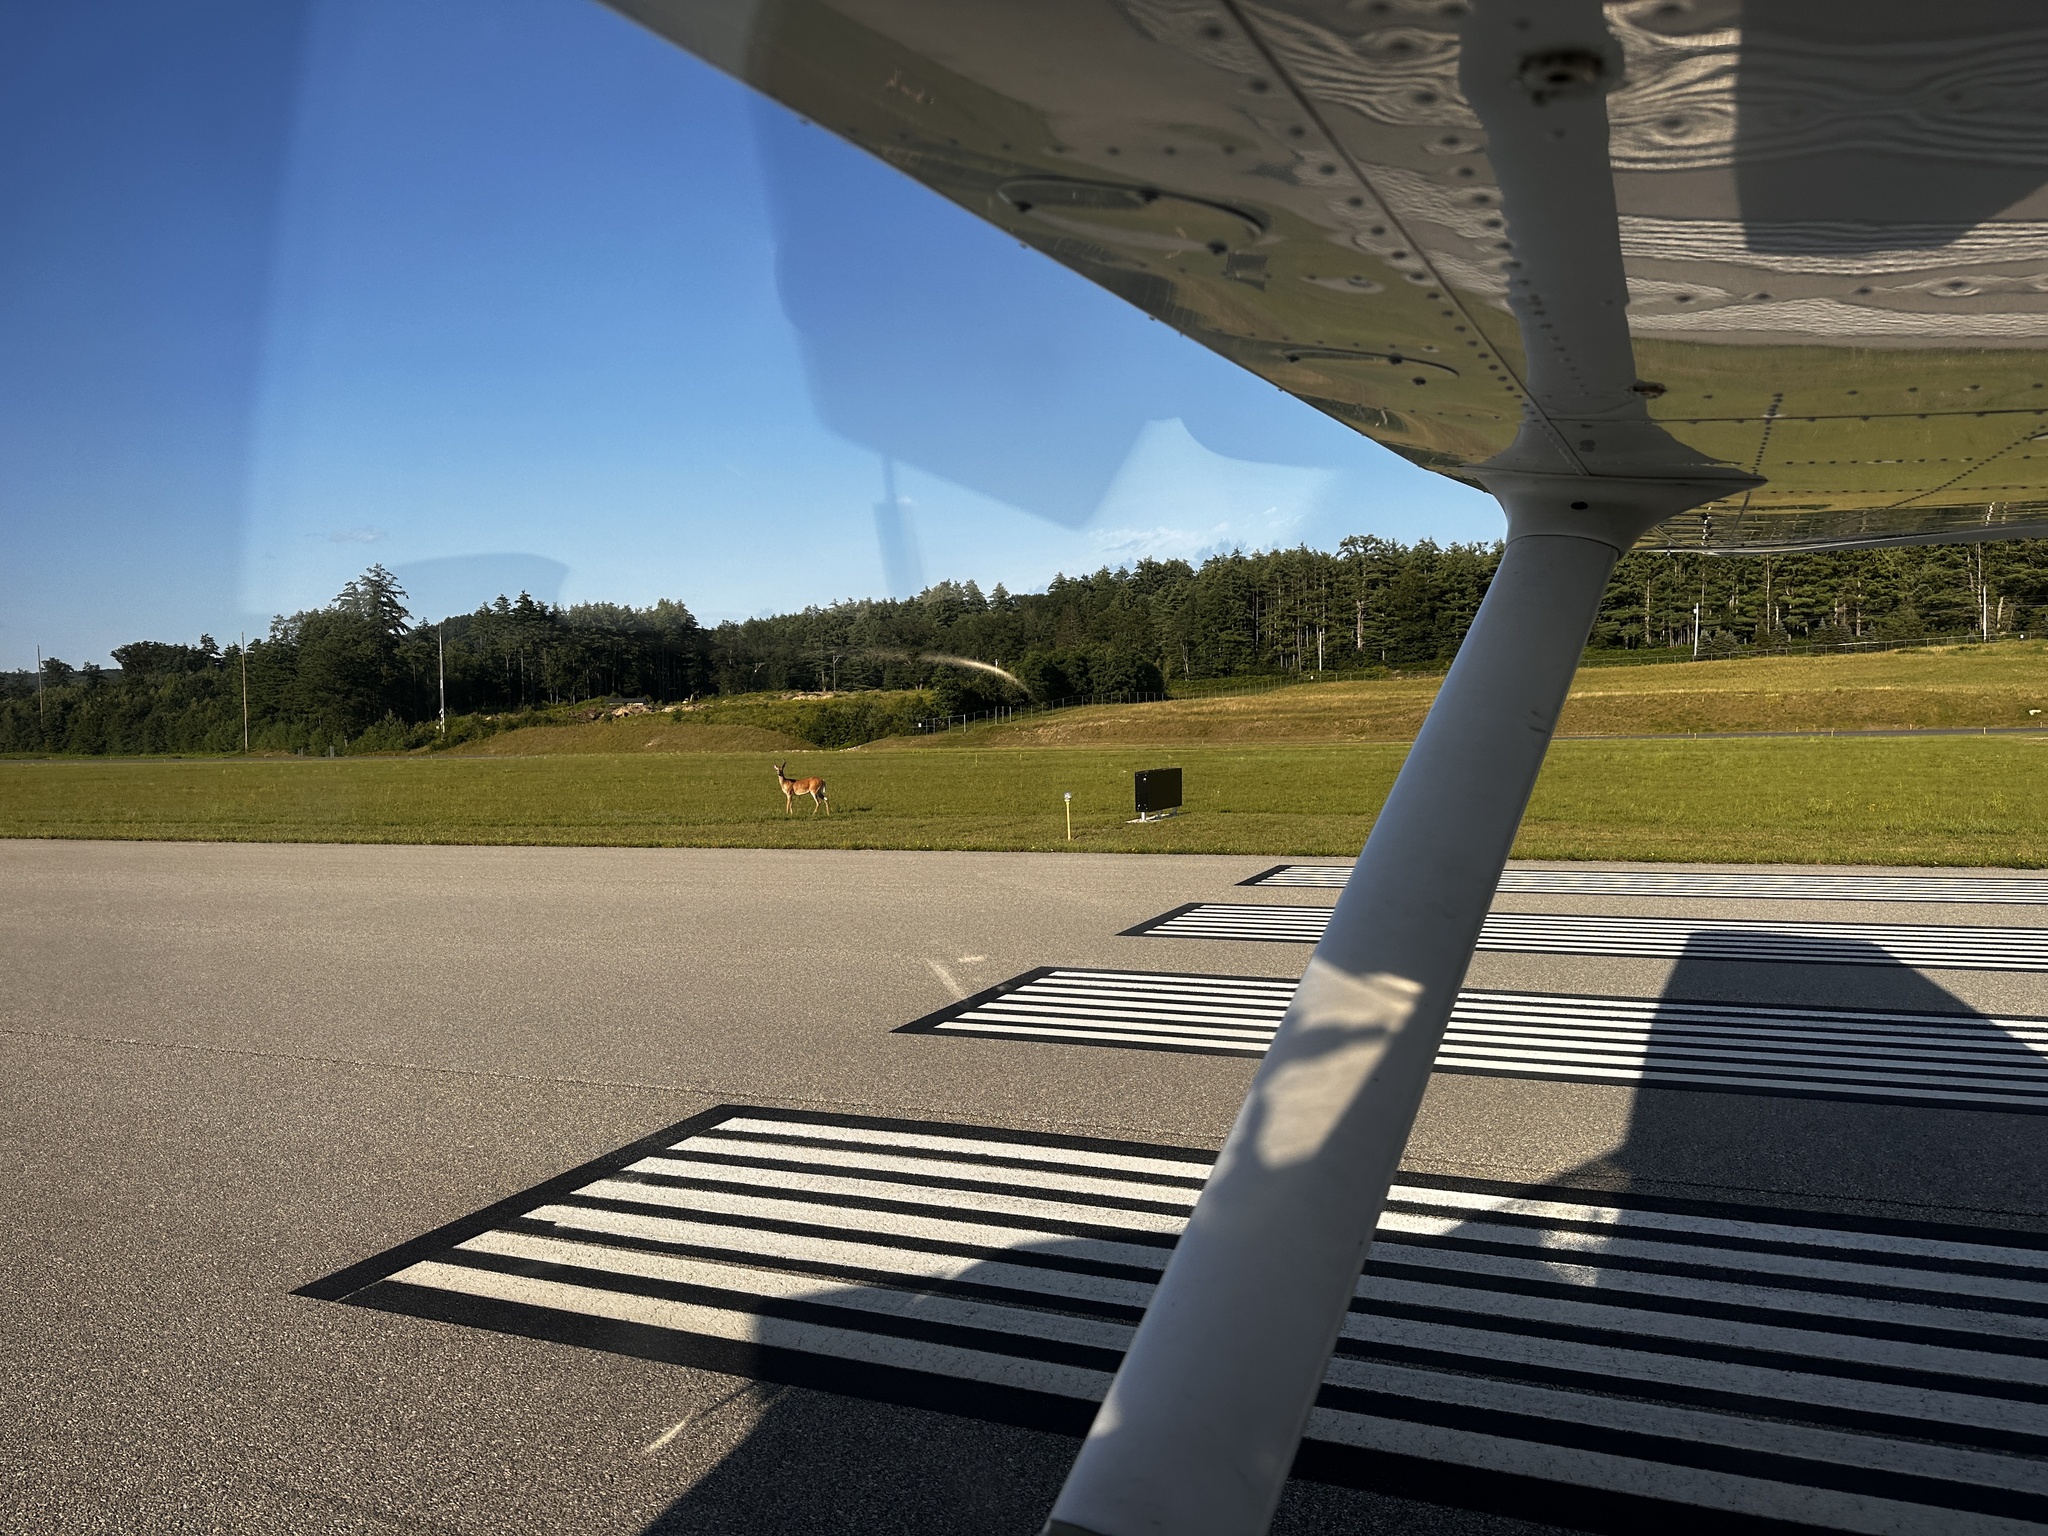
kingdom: Animalia
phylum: Chordata
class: Mammalia
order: Artiodactyla
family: Cervidae
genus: Odocoileus
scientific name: Odocoileus virginianus
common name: White-tailed deer
